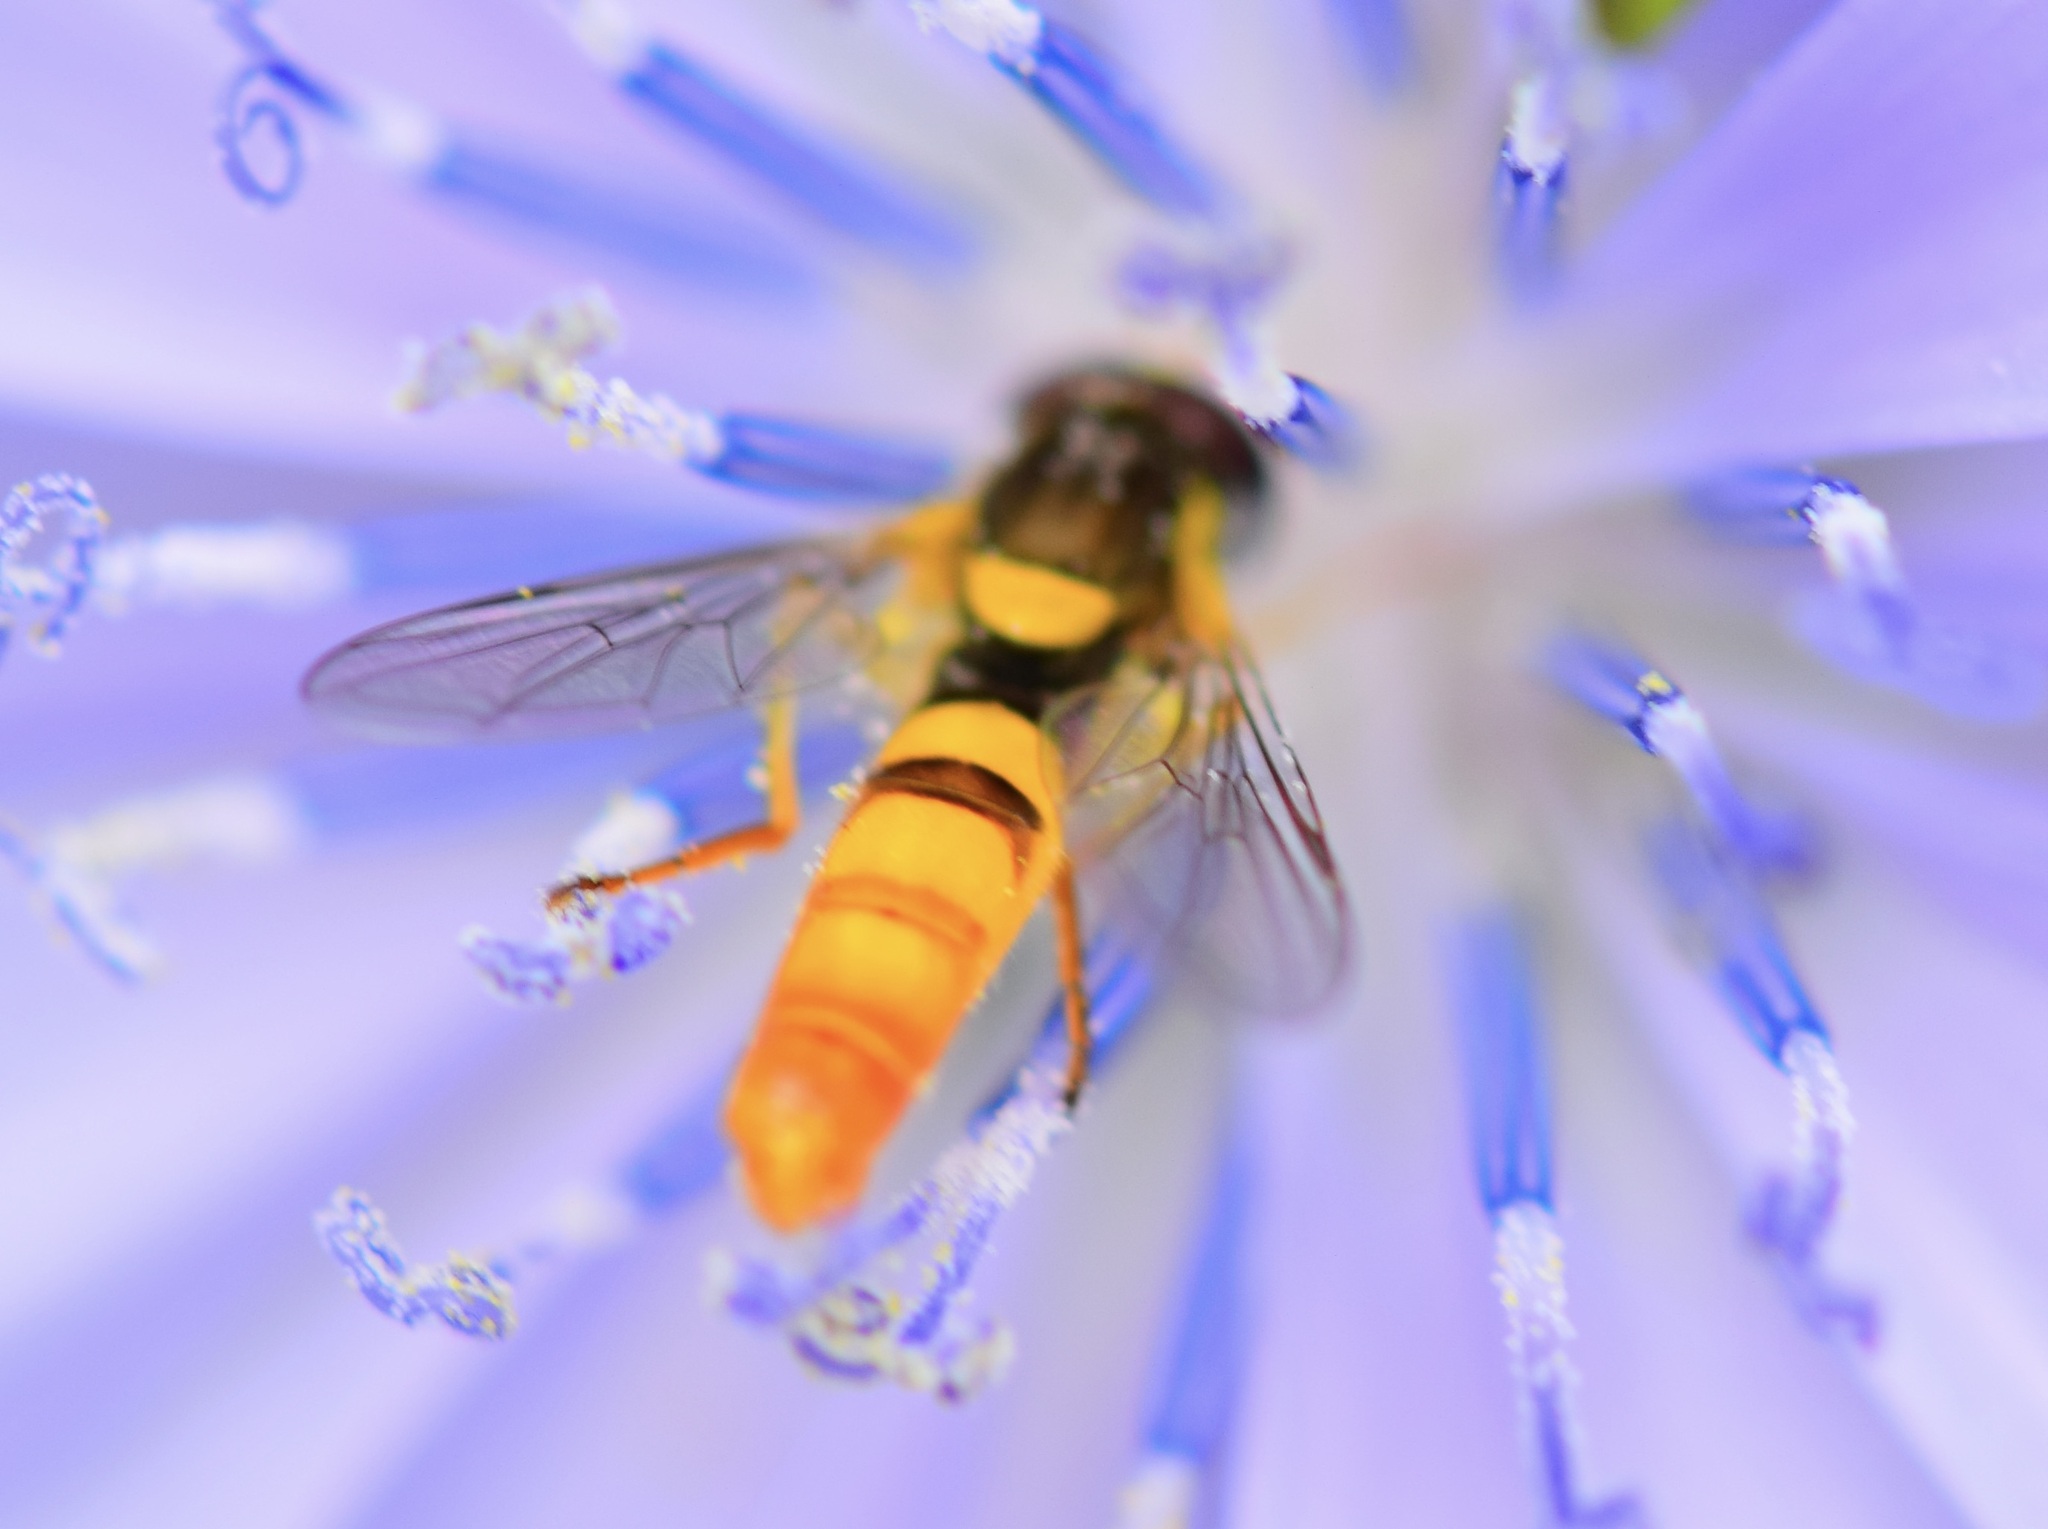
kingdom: Animalia
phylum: Arthropoda
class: Insecta
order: Diptera
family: Syrphidae
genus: Sphaerophoria
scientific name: Sphaerophoria contigua
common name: Tufted globetail
